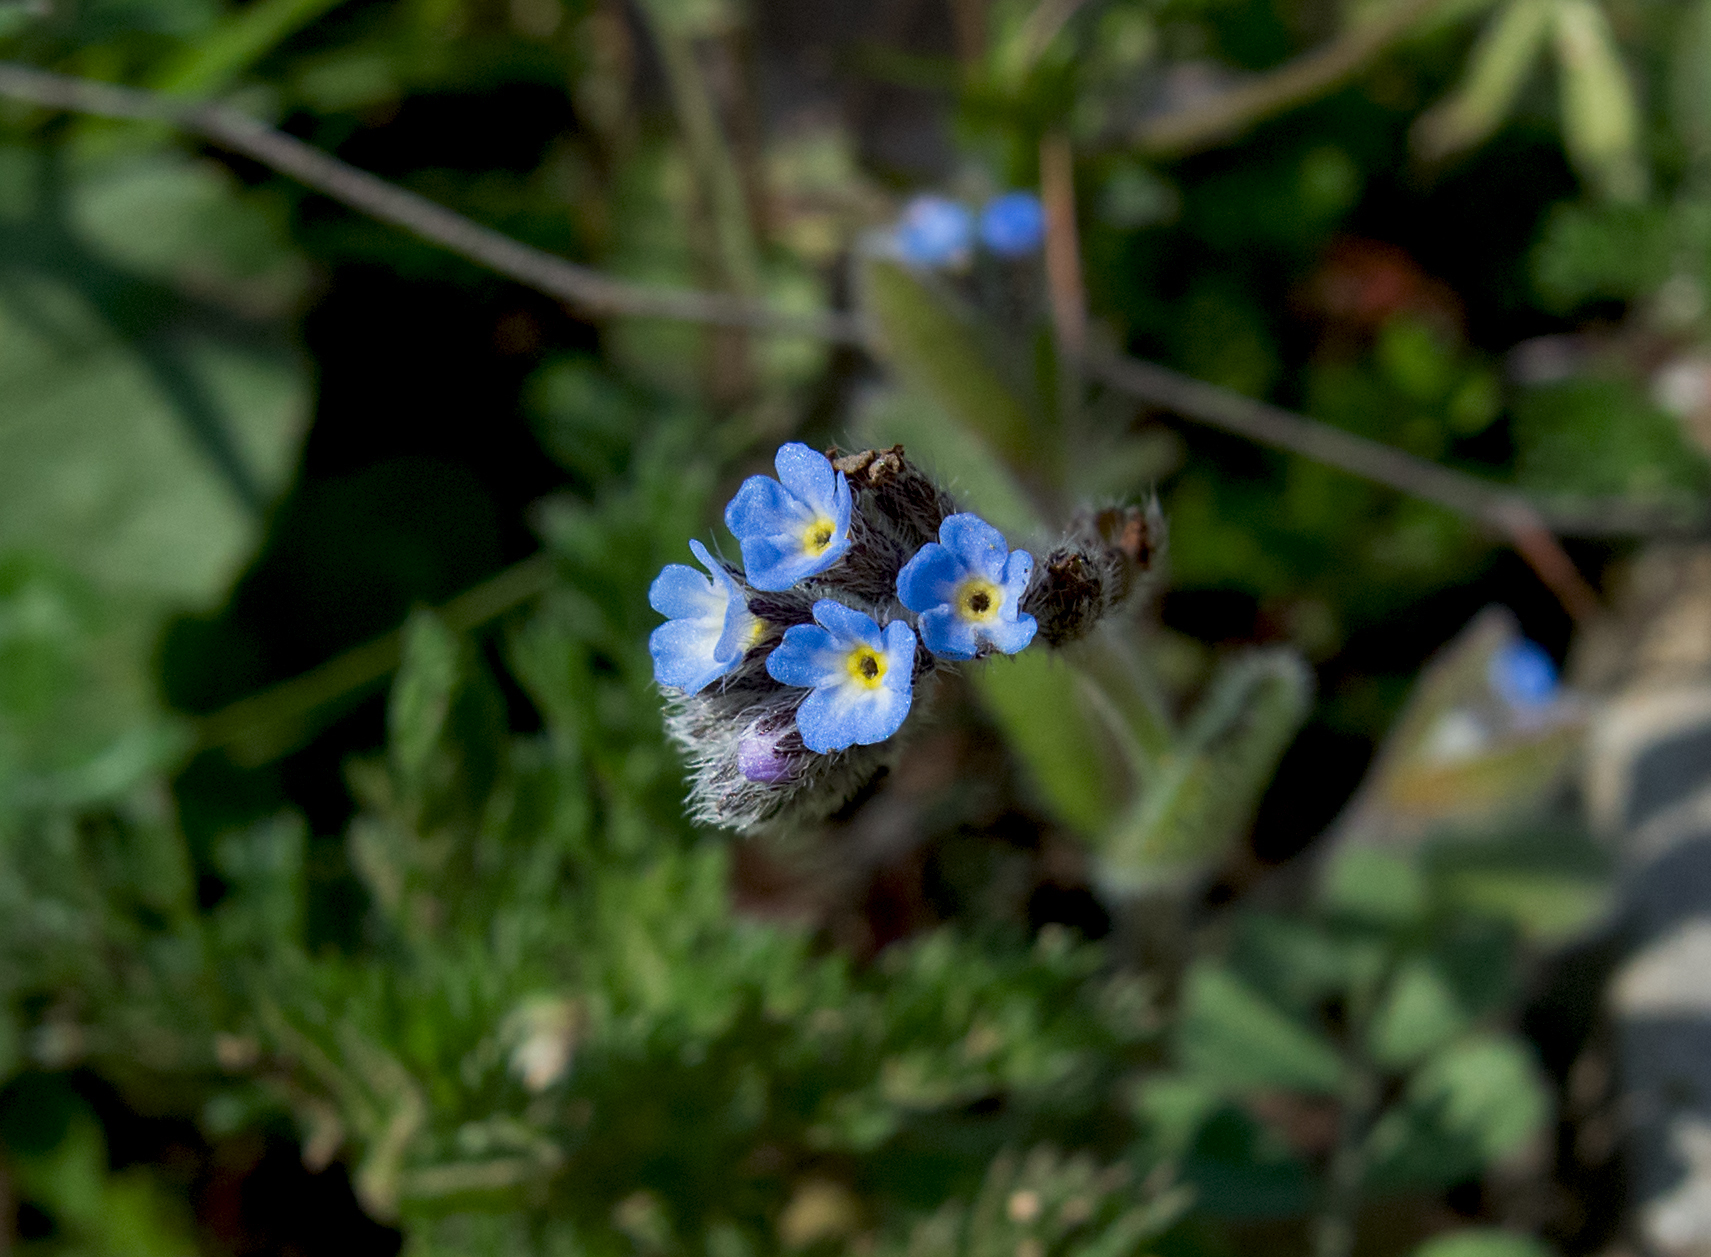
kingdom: Plantae
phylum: Tracheophyta
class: Magnoliopsida
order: Boraginales
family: Boraginaceae
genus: Myosotis
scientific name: Myosotis ramosissima
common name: Early forget-me-not
